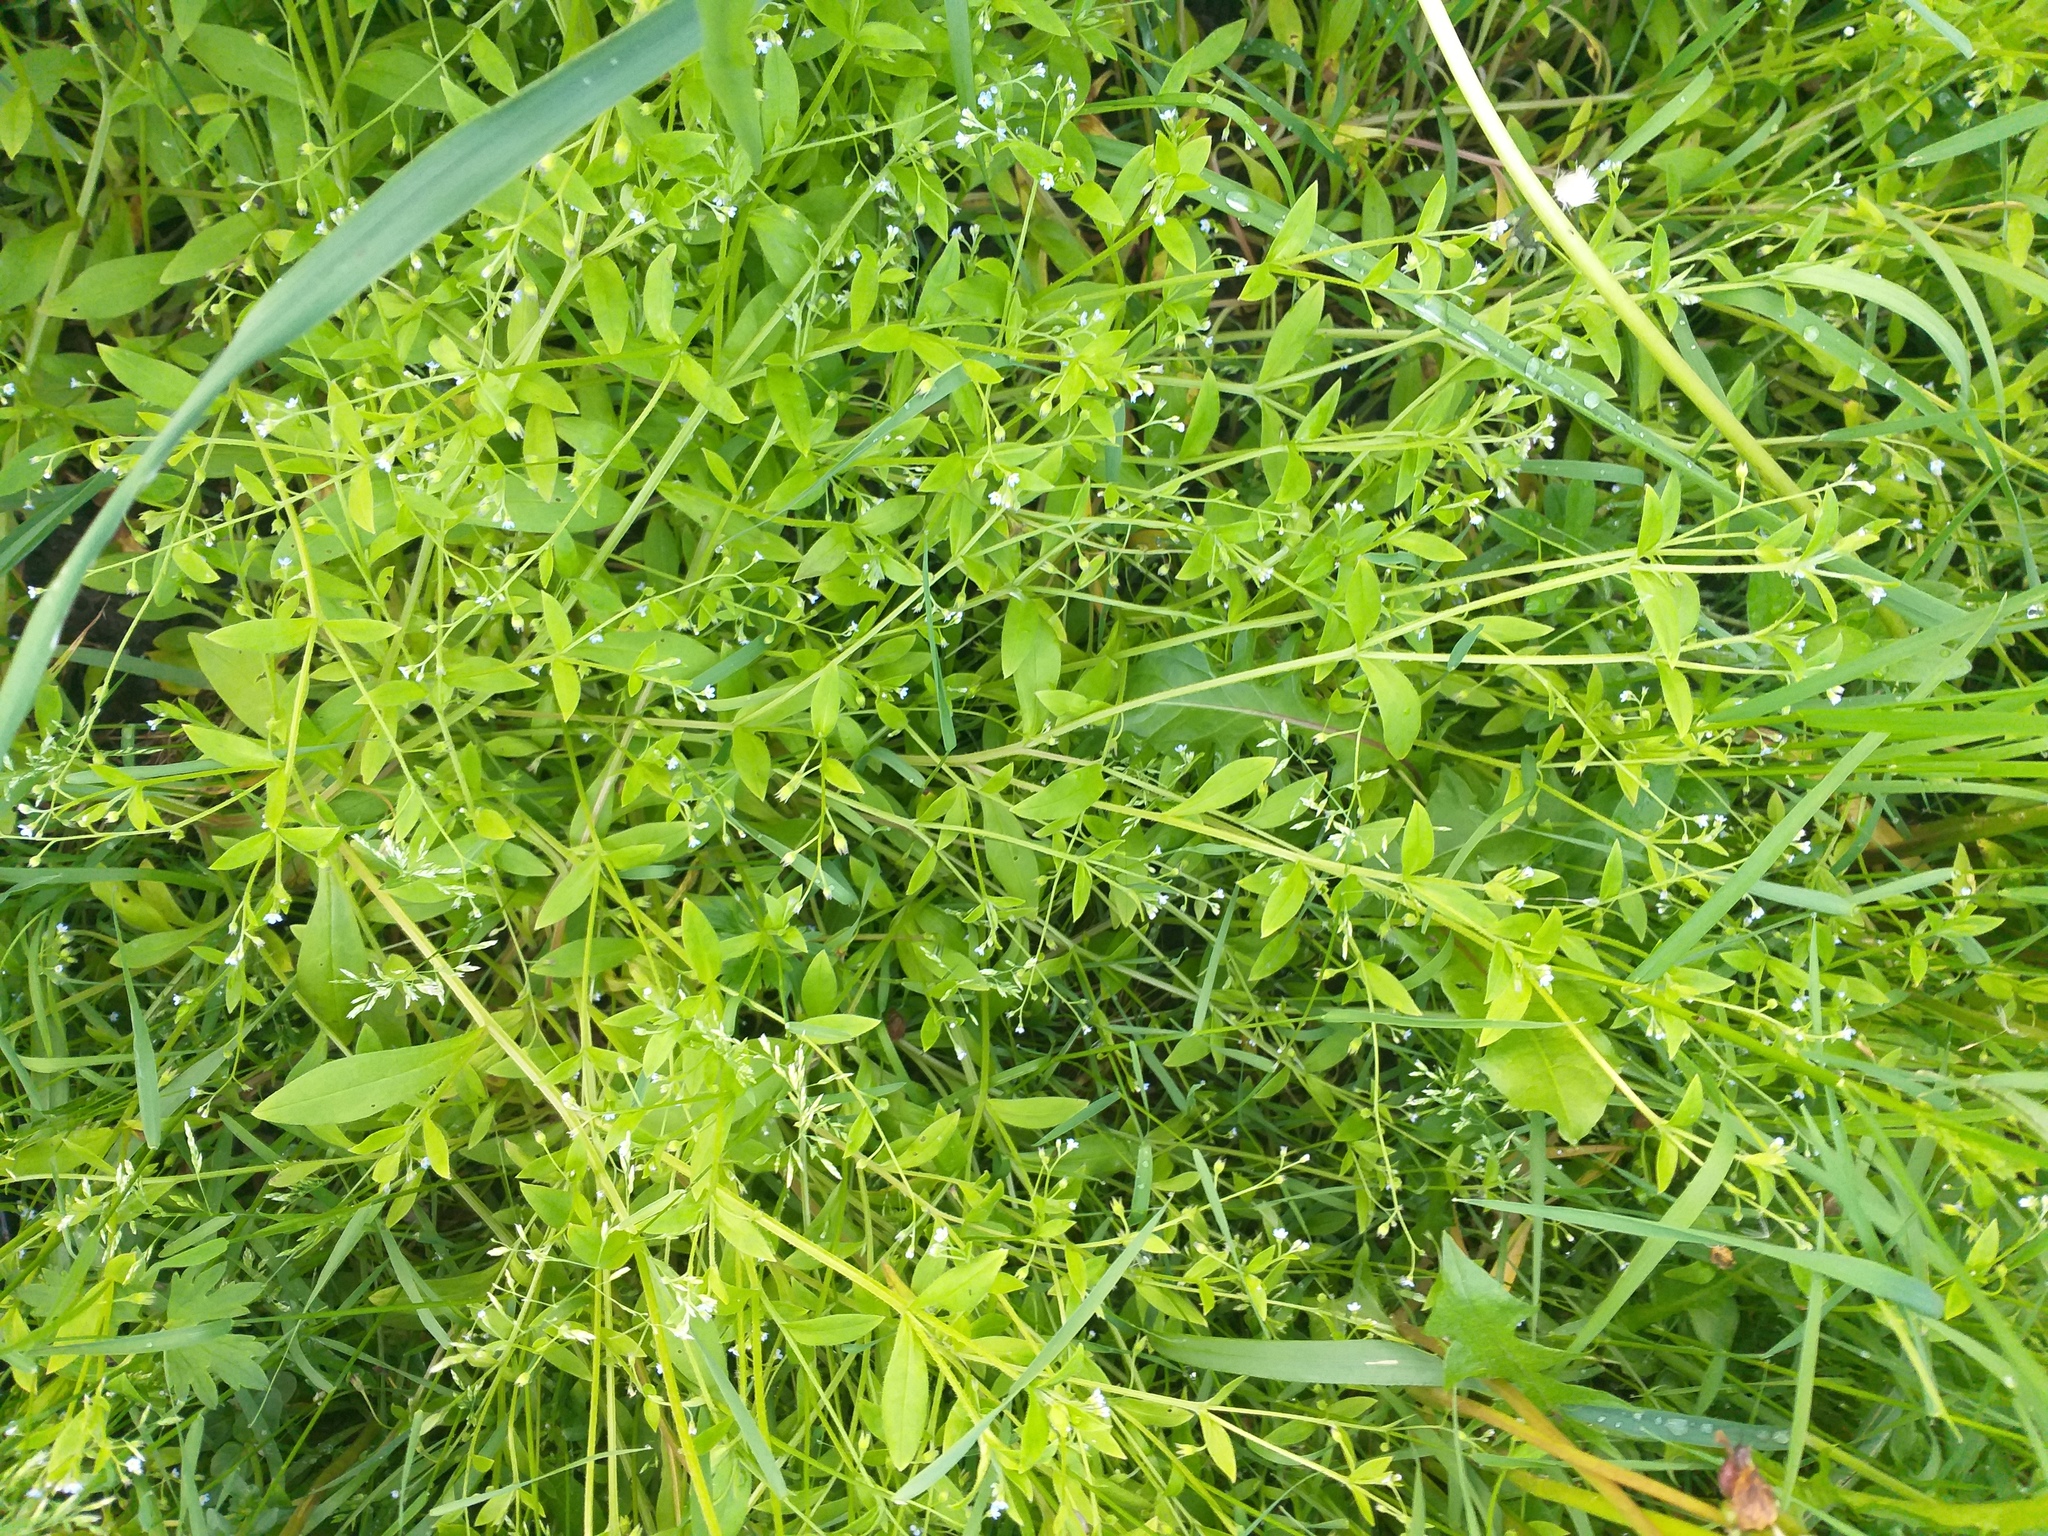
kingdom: Plantae
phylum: Tracheophyta
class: Magnoliopsida
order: Boraginales
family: Boraginaceae
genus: Myosotis
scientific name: Myosotis sparsiflora
